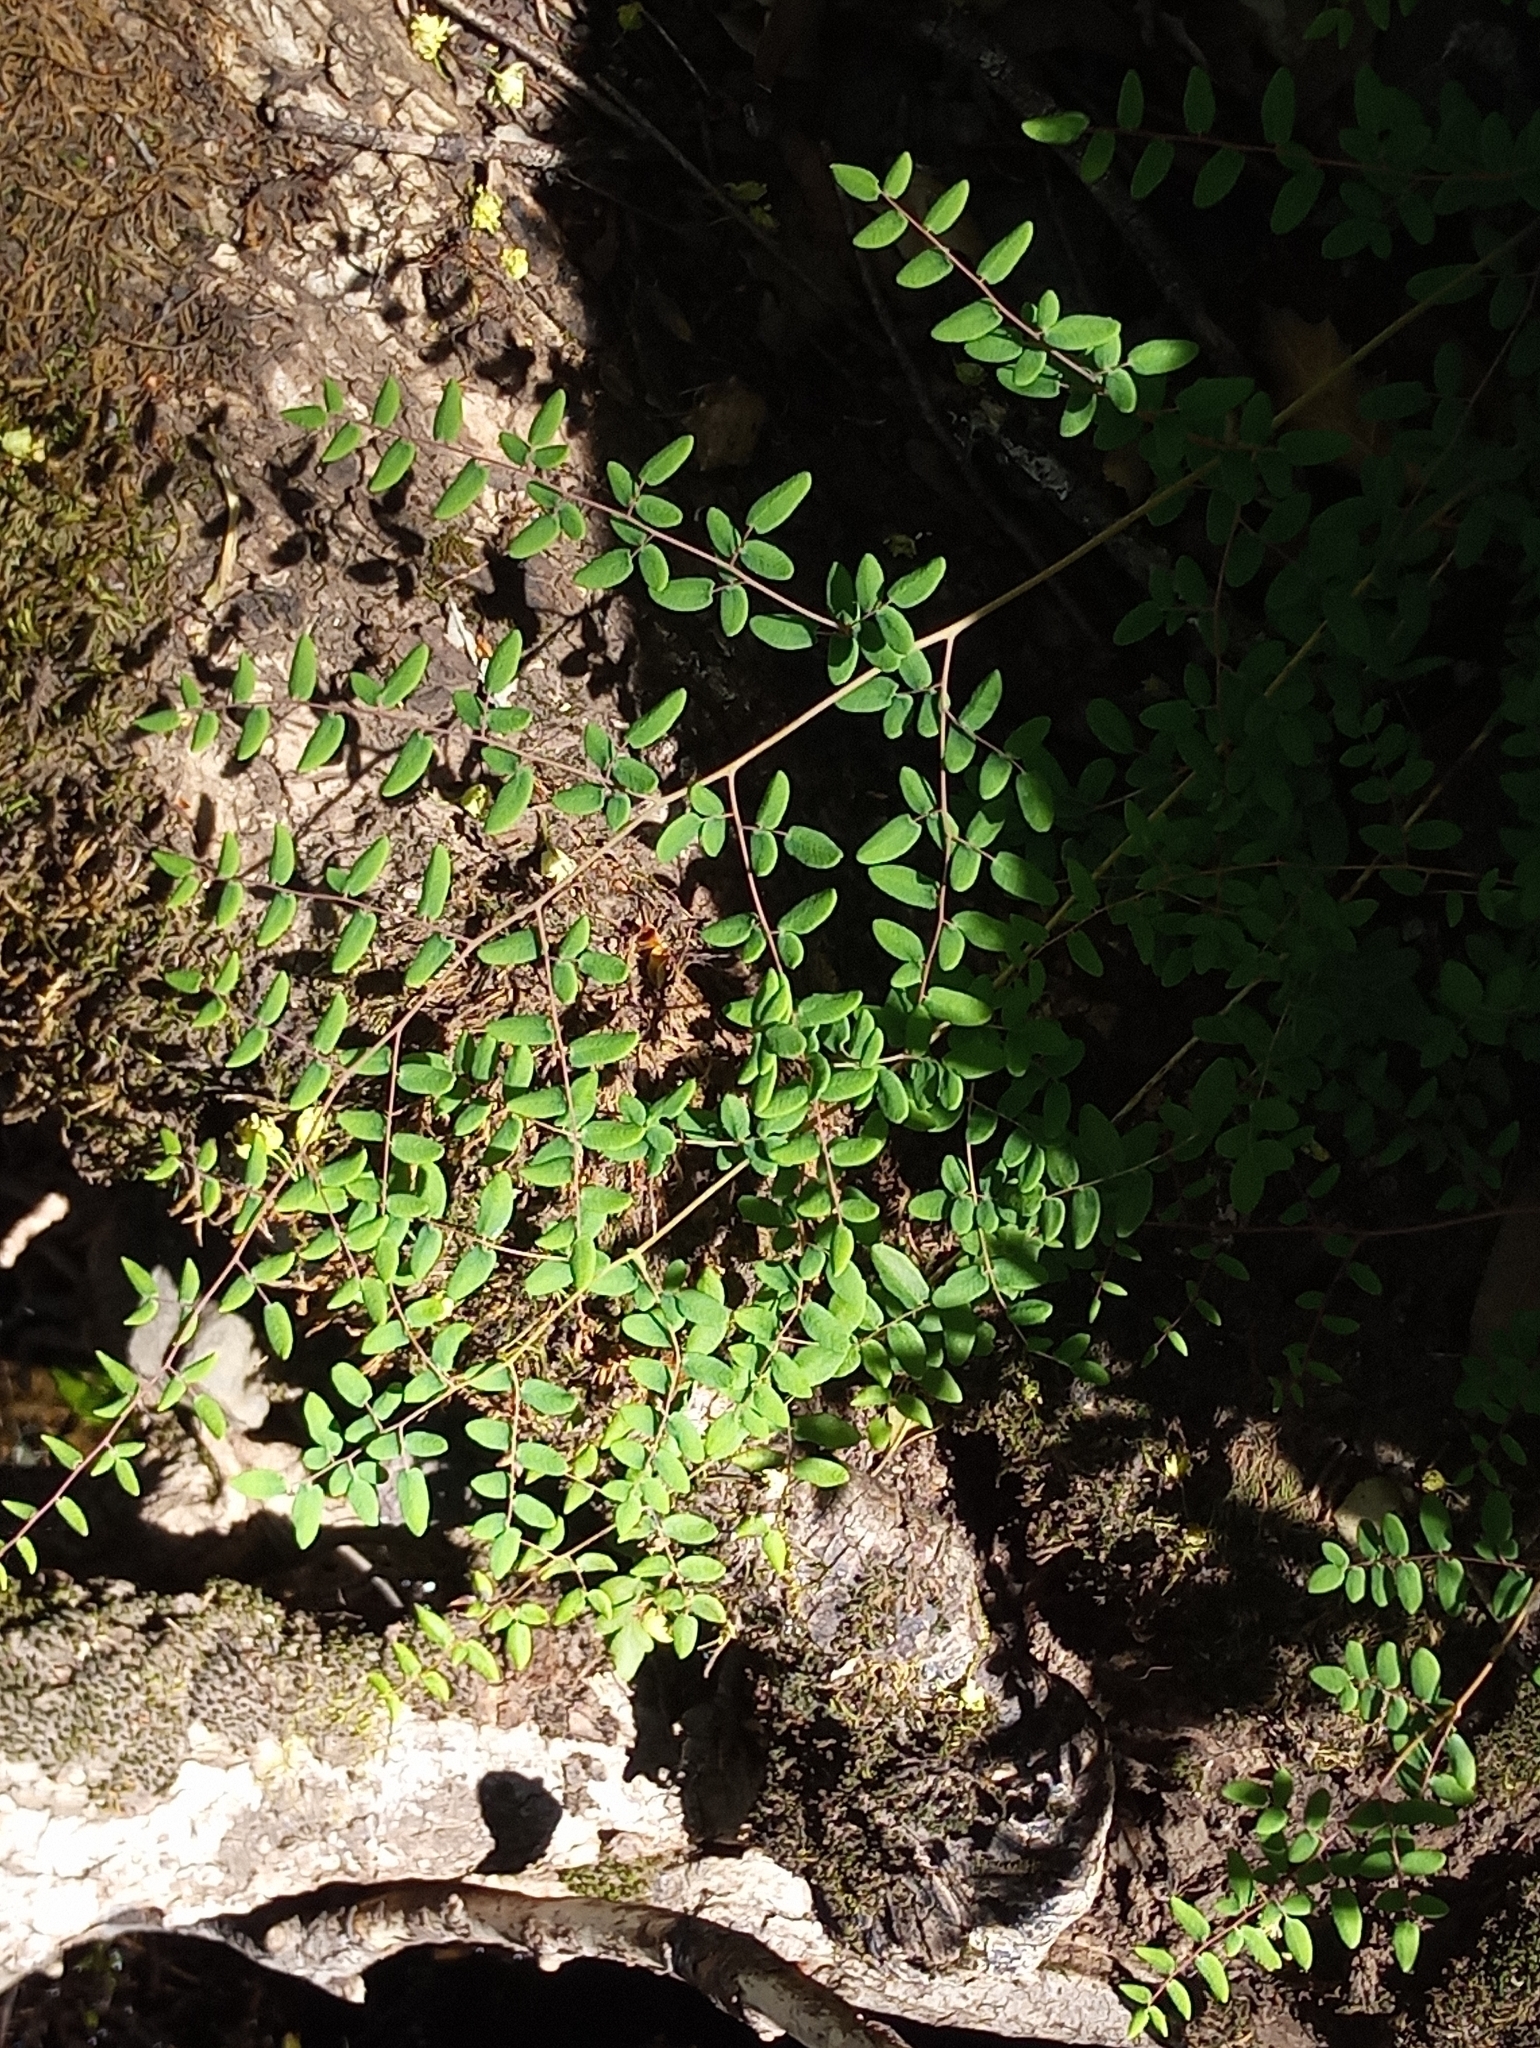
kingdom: Plantae
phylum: Tracheophyta
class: Polypodiopsida
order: Polypodiales
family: Pteridaceae
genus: Pellaea
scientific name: Pellaea andromedifolia
